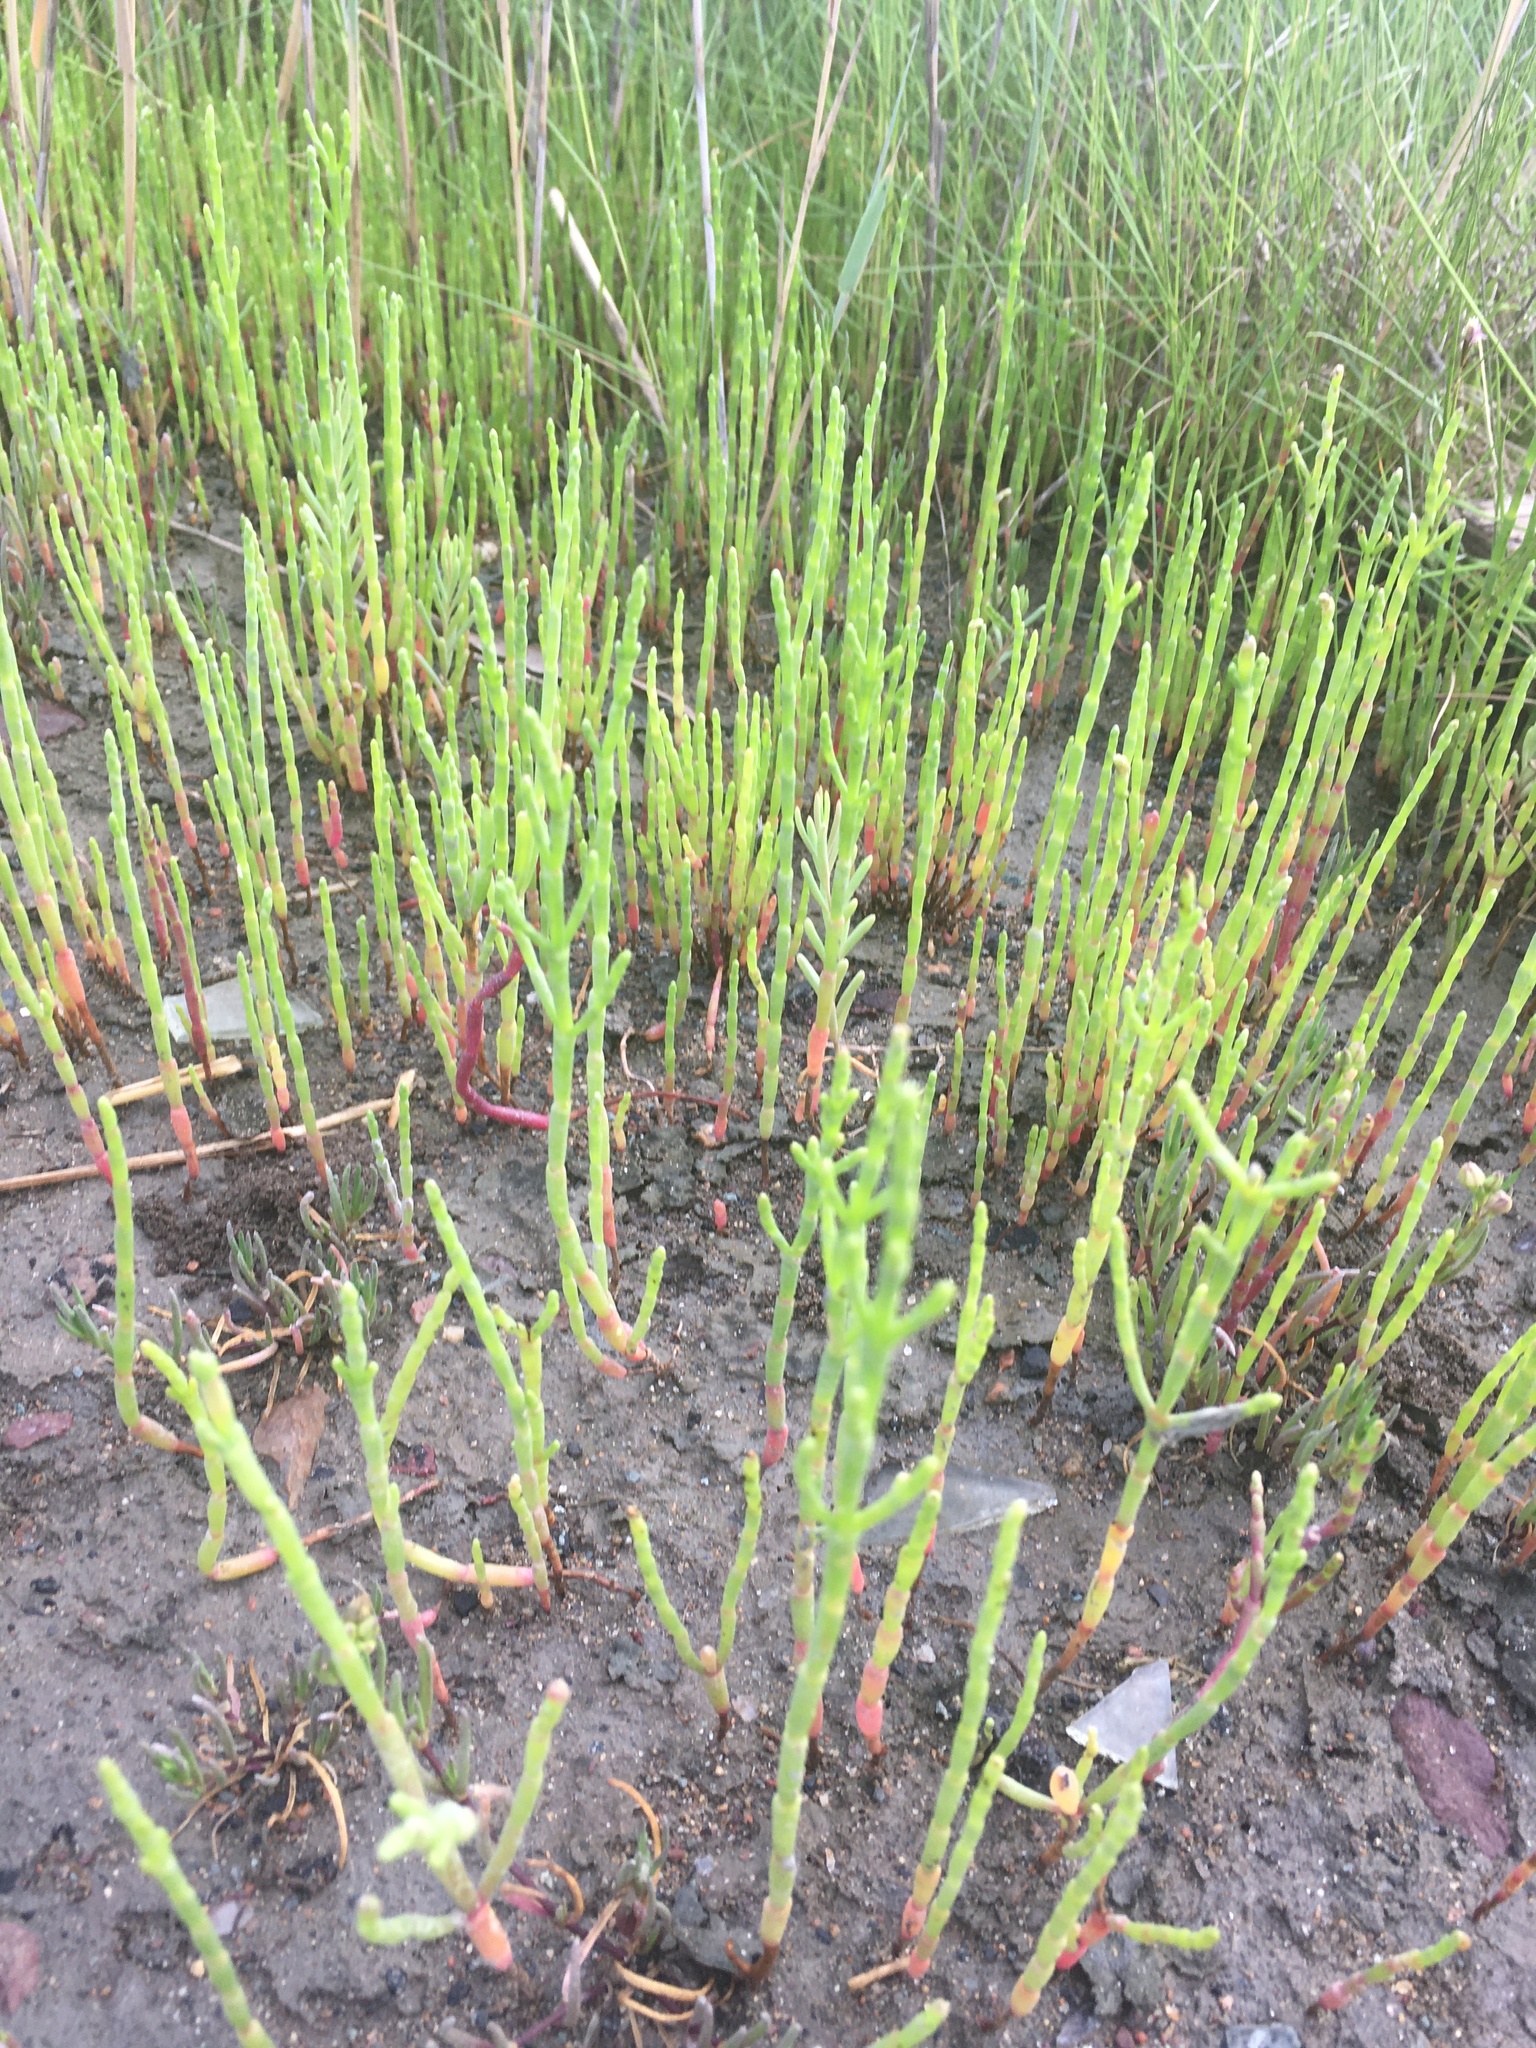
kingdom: Plantae
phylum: Tracheophyta
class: Magnoliopsida
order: Caryophyllales
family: Amaranthaceae
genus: Salicornia
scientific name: Salicornia virginica
